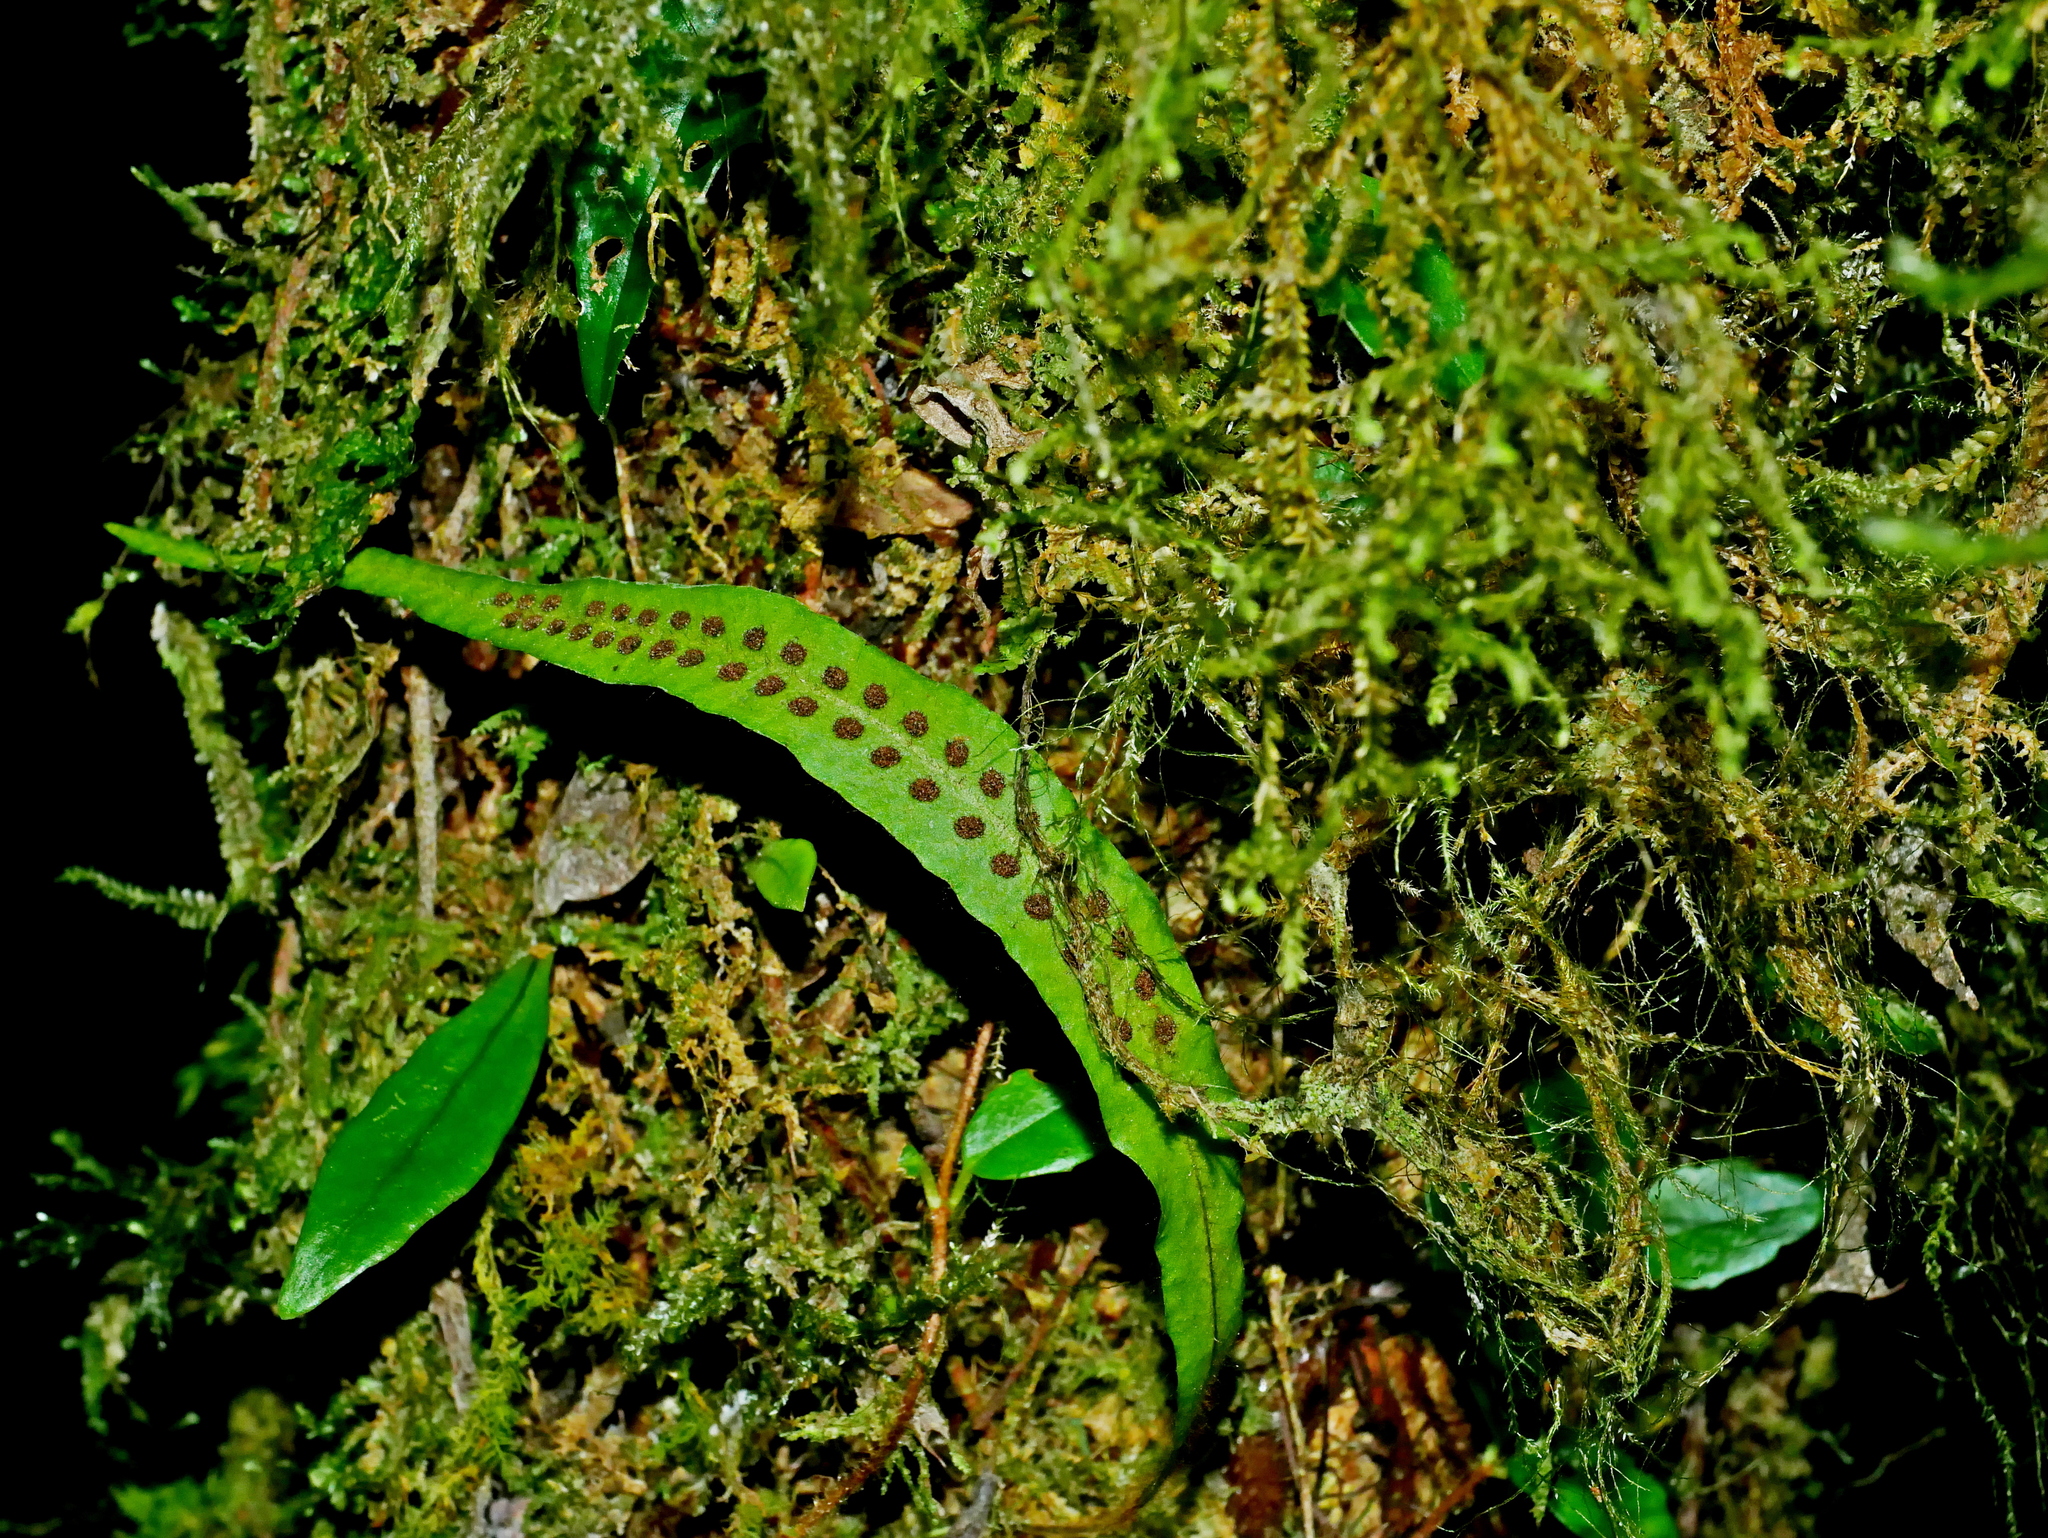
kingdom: Plantae
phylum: Tracheophyta
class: Polypodiopsida
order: Polypodiales
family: Polypodiaceae
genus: Oreogrammitis
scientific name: Oreogrammitis congener
